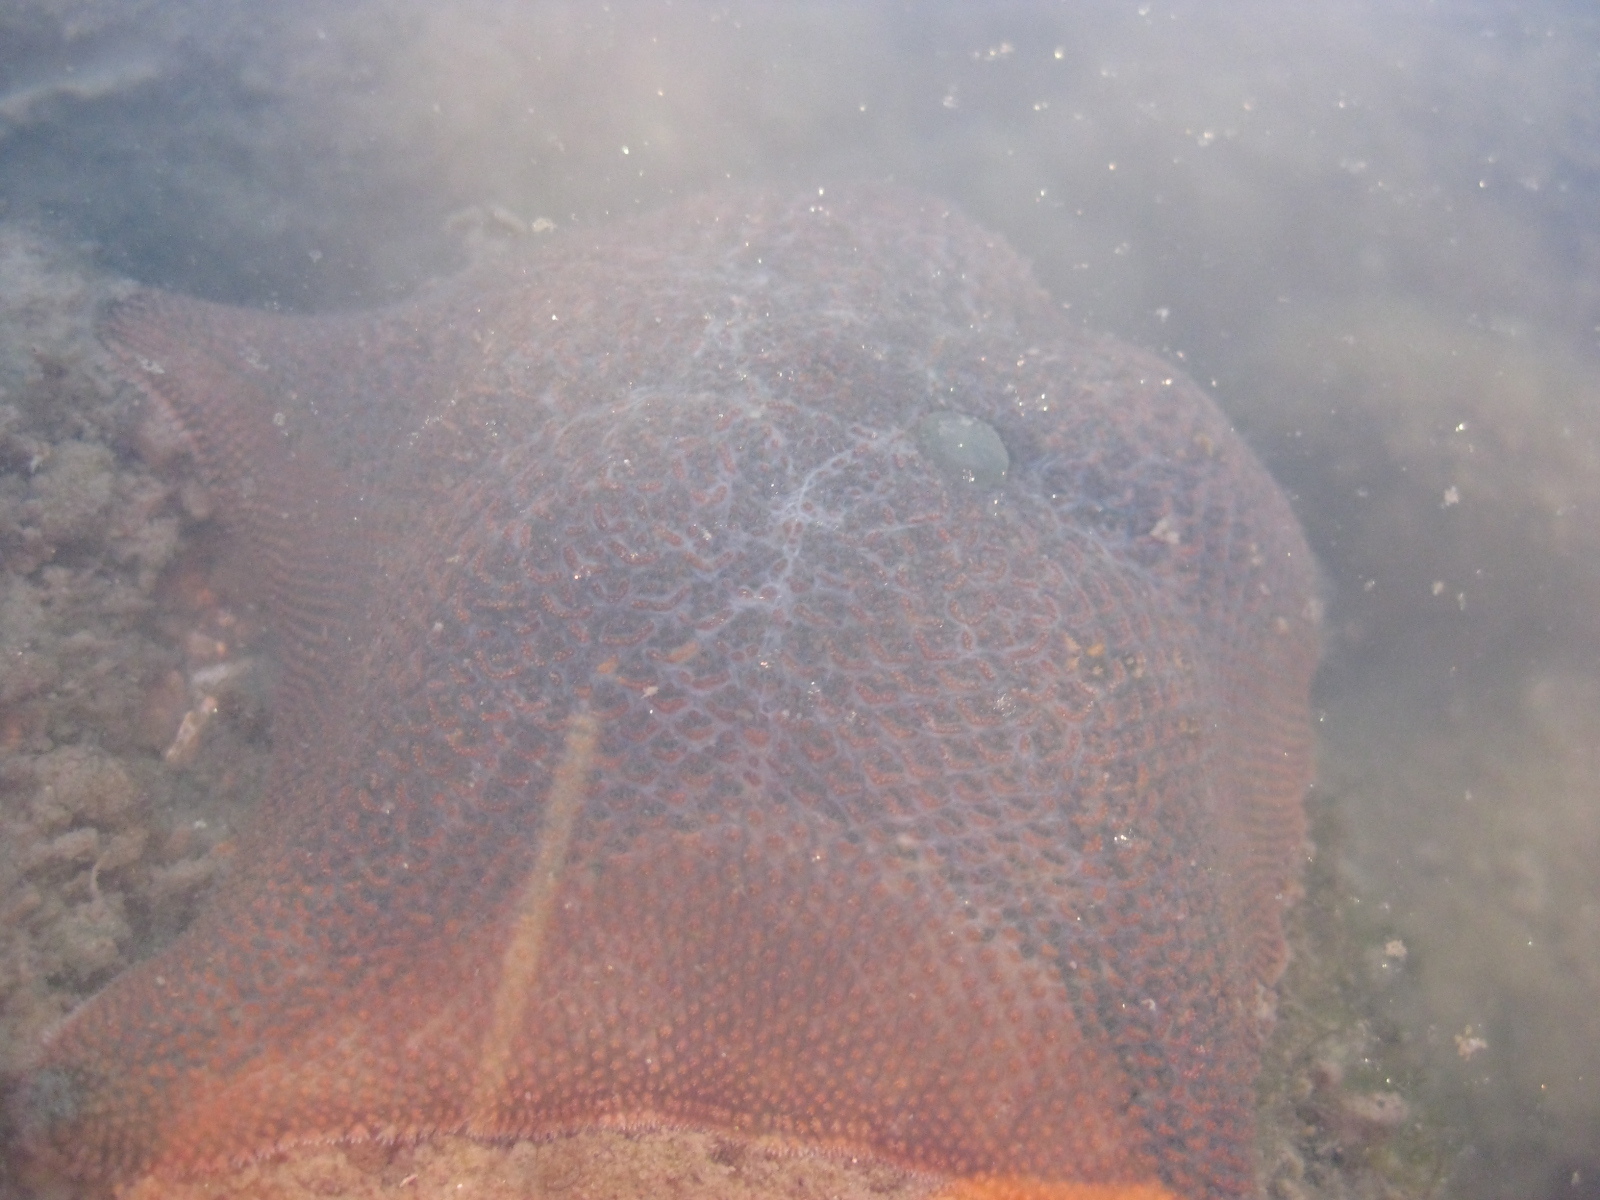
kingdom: Animalia
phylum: Echinodermata
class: Asteroidea
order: Valvatida
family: Asterinidae
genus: Patiriella
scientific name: Patiriella regularis
